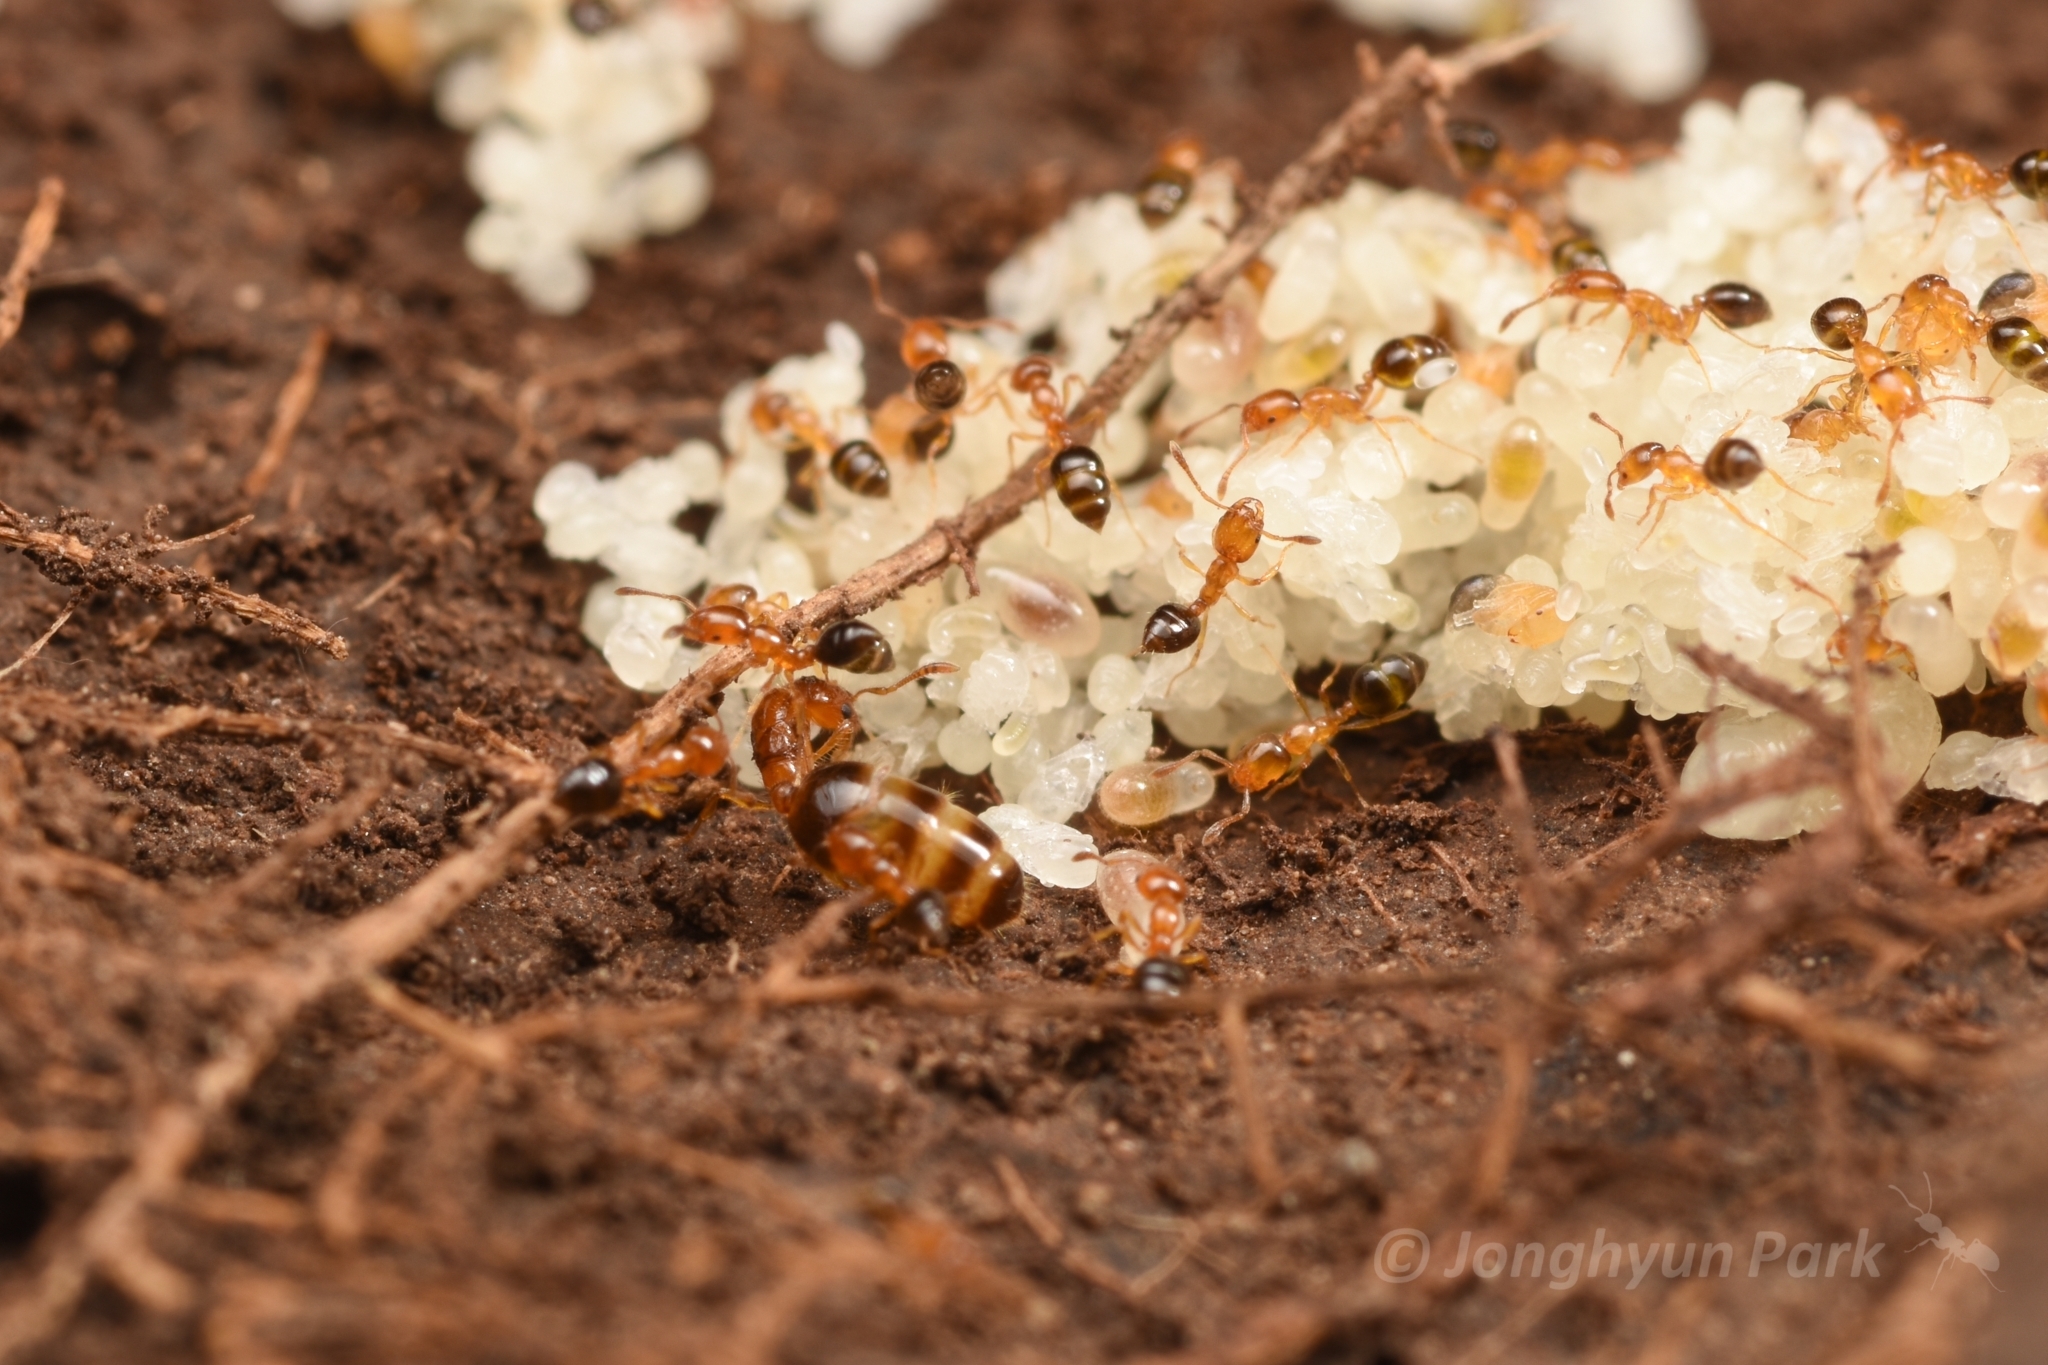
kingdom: Animalia
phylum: Arthropoda
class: Insecta
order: Hymenoptera
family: Formicidae
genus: Monomorium
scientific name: Monomorium intrudens
